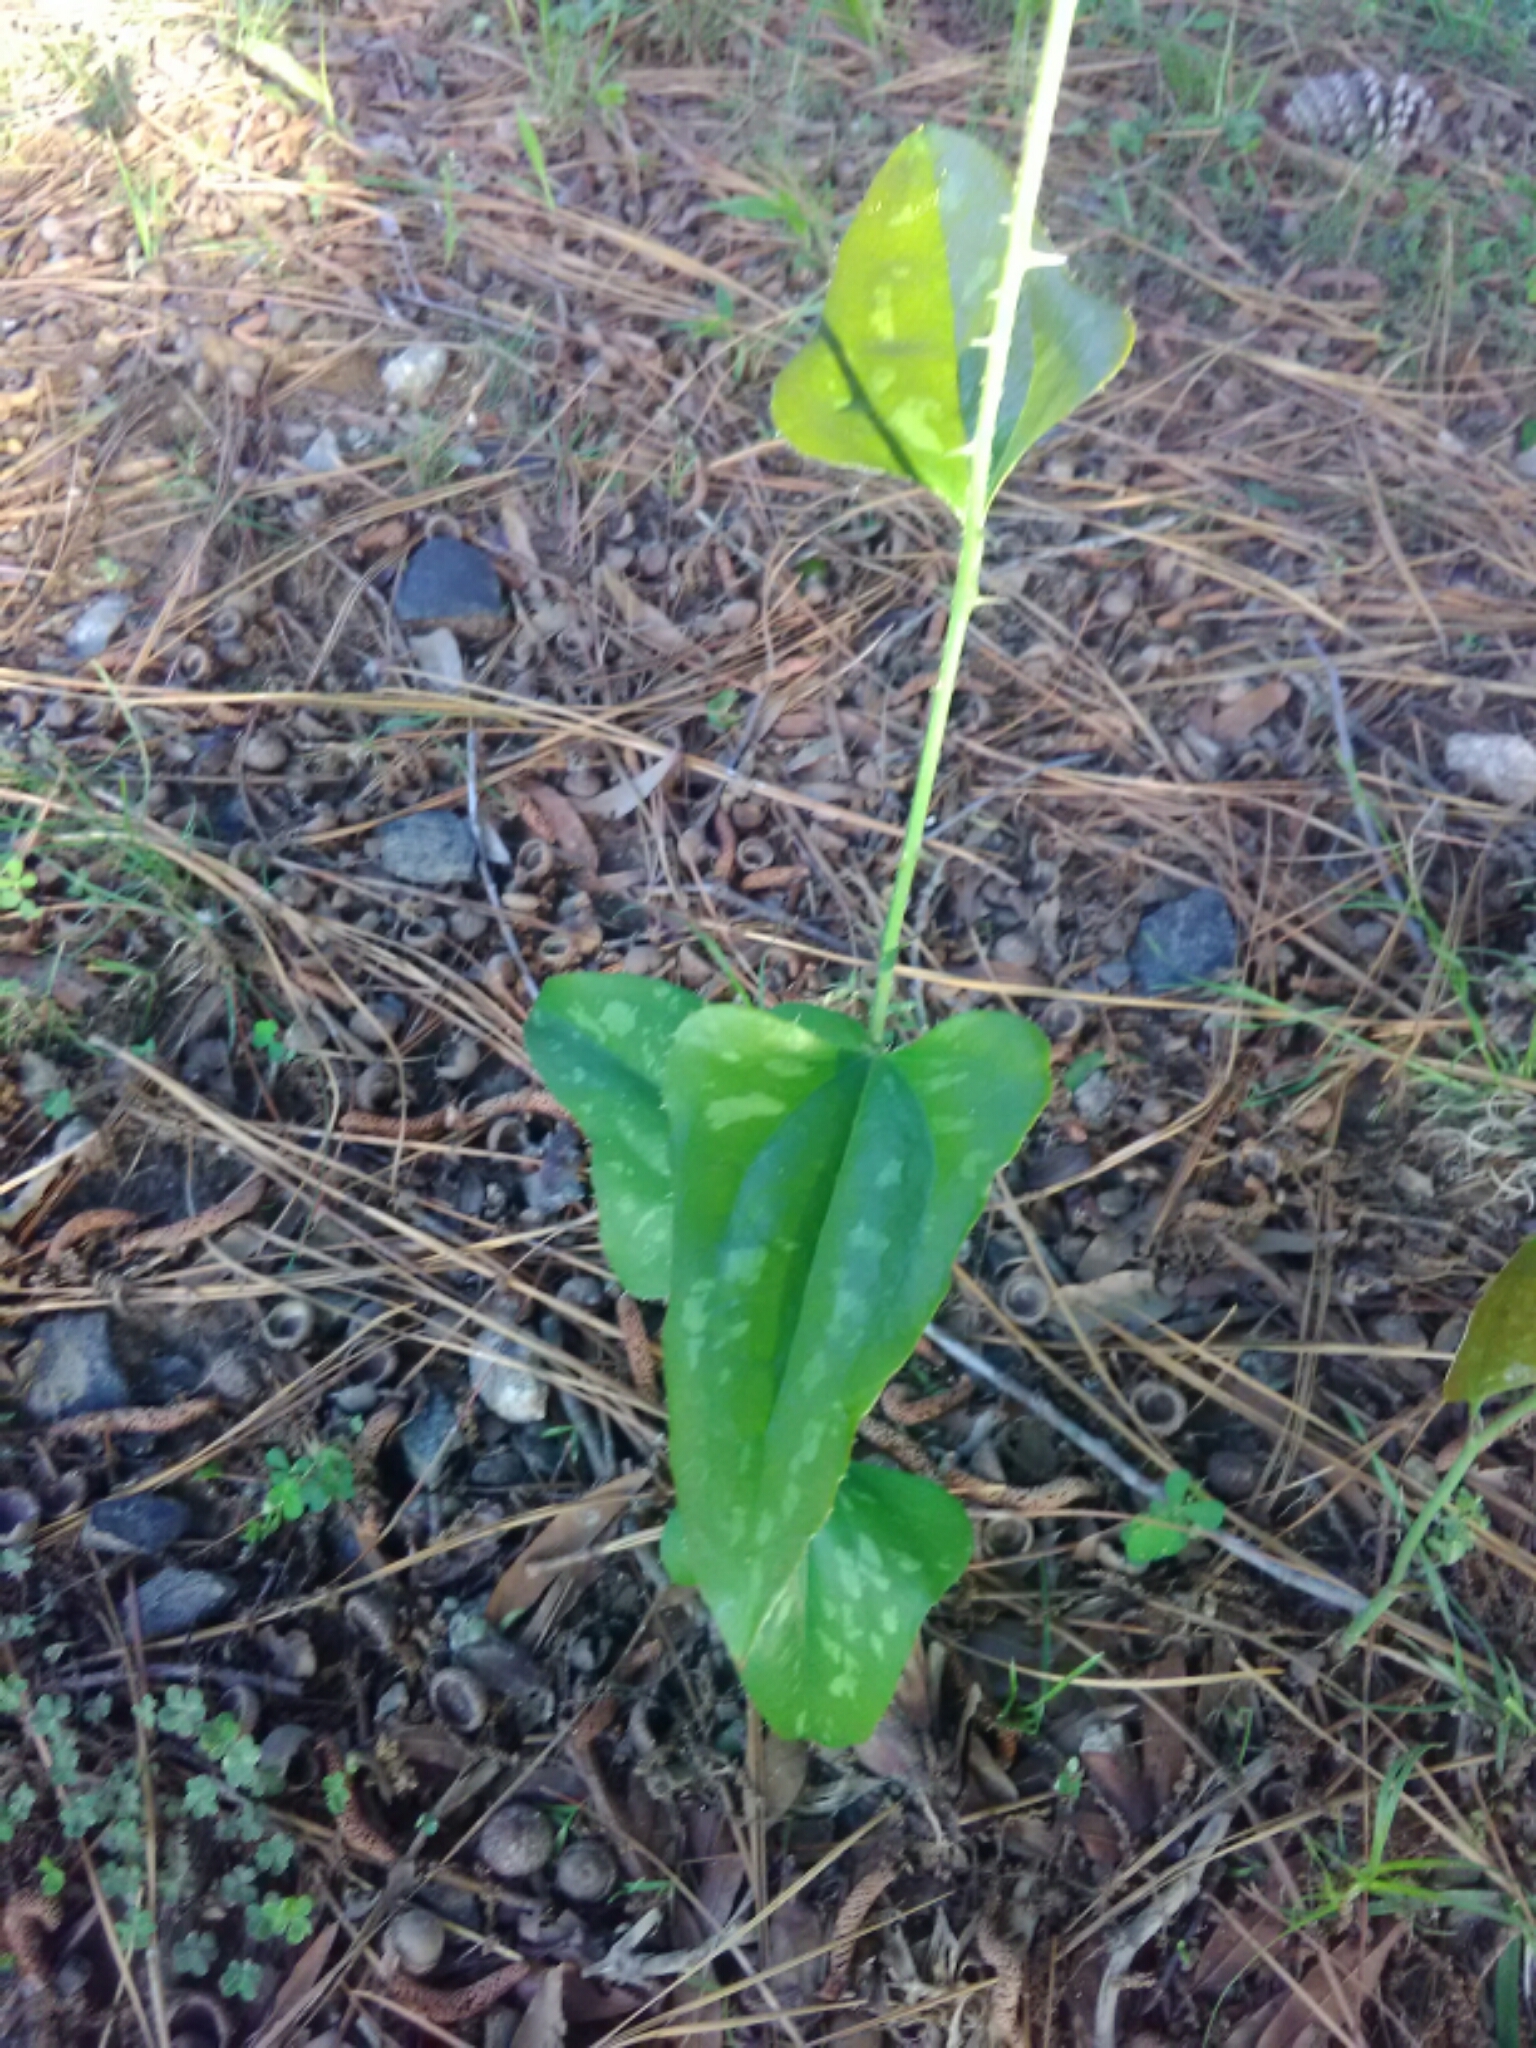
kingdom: Plantae
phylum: Tracheophyta
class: Liliopsida
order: Liliales
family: Smilacaceae
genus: Smilax
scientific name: Smilax bona-nox
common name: Catbrier
